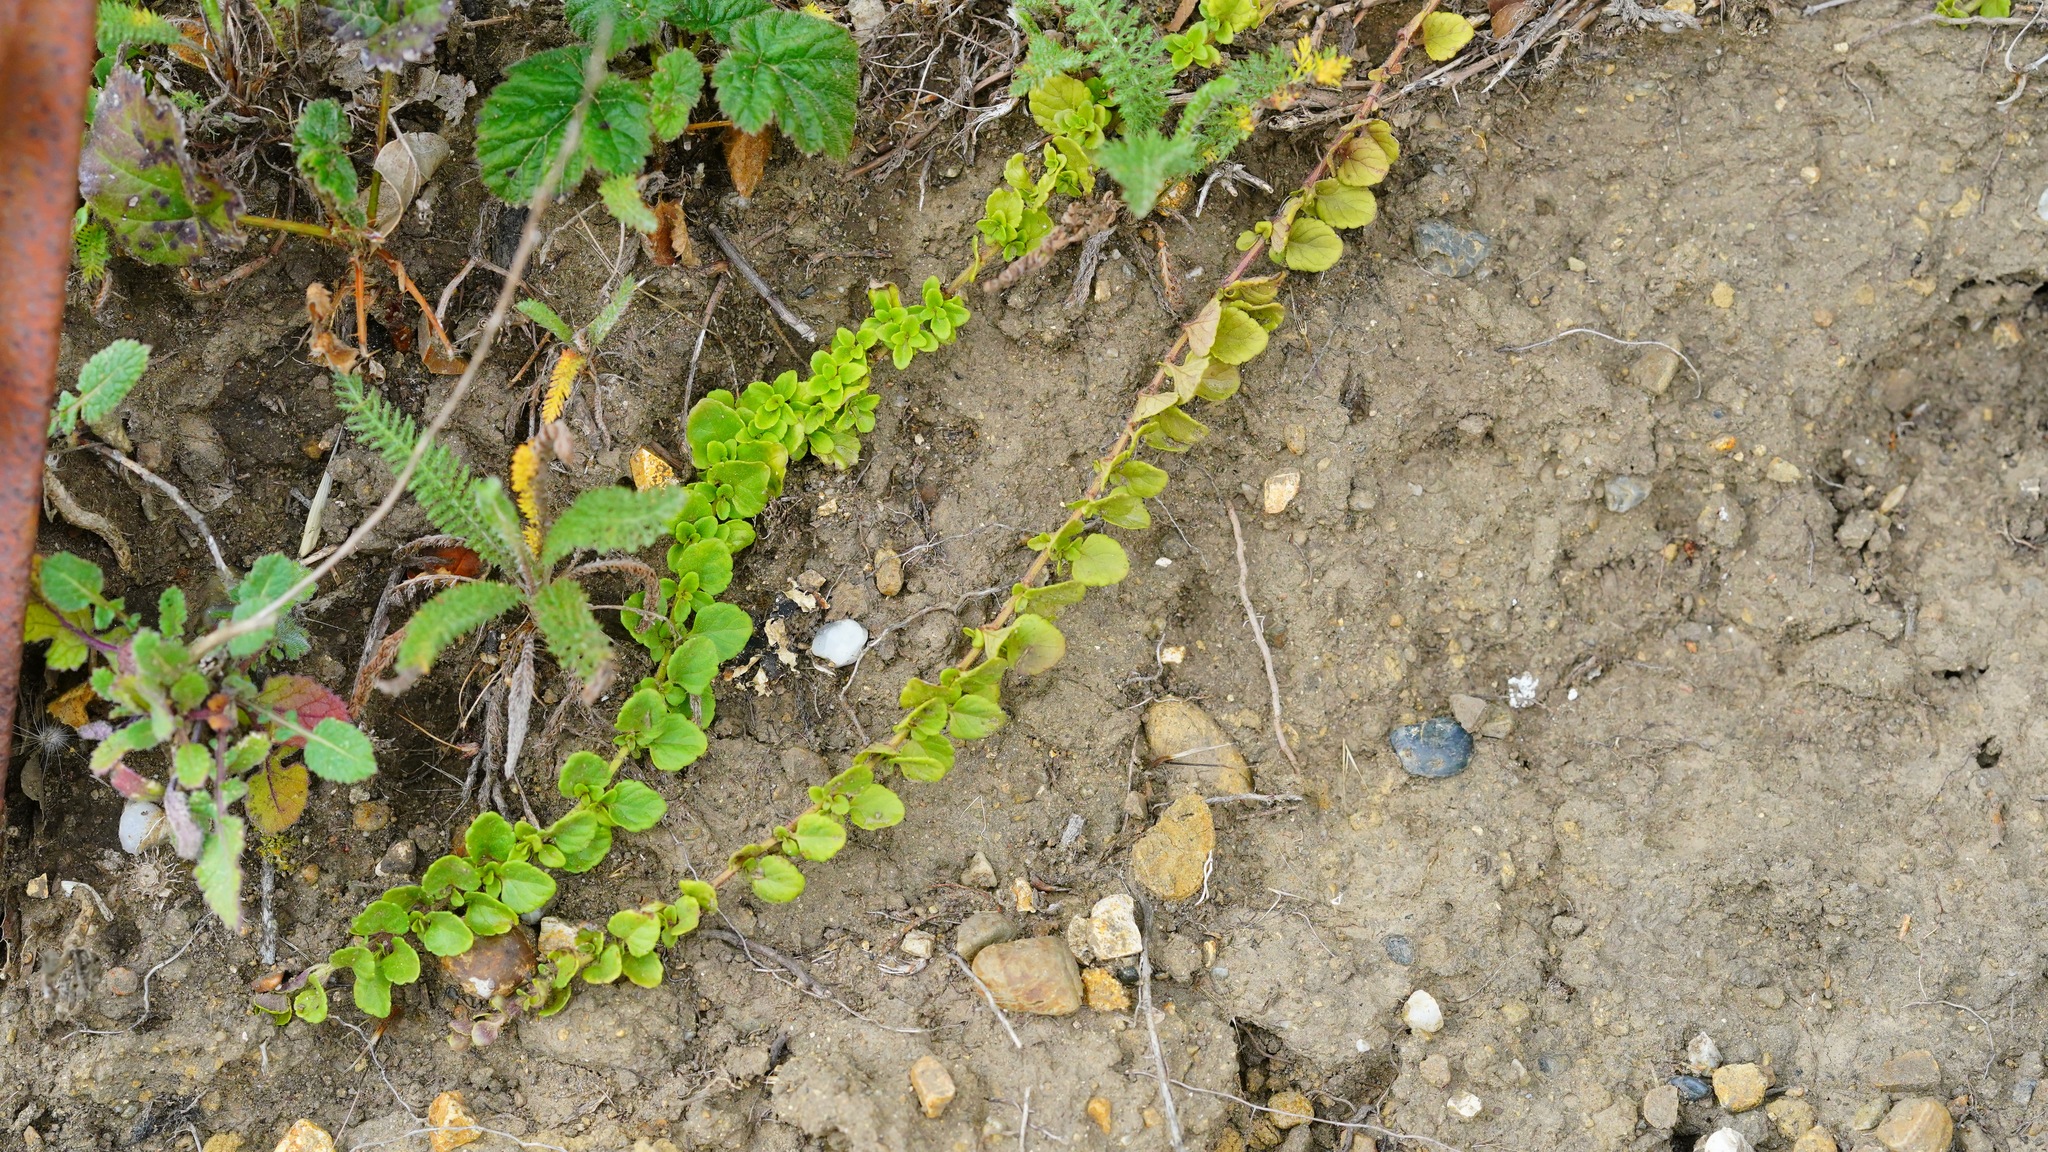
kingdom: Plantae
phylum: Tracheophyta
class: Magnoliopsida
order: Lamiales
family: Lamiaceae
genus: Micromeria
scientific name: Micromeria douglasii
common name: Yerba buena
